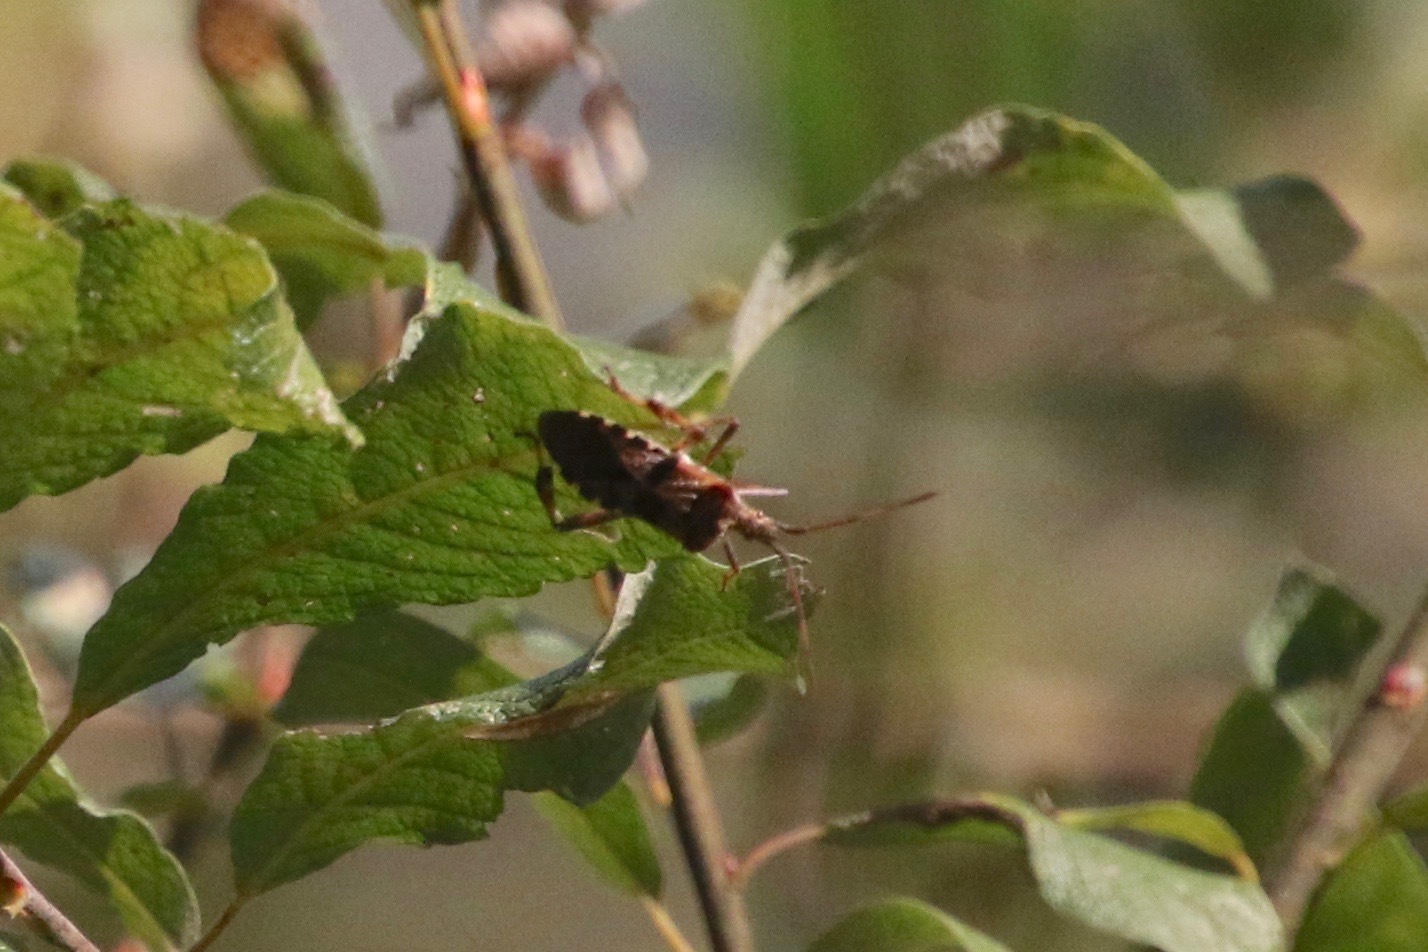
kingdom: Animalia
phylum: Arthropoda
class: Insecta
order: Hemiptera
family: Coreidae
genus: Leptoglossus
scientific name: Leptoglossus occidentalis
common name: Western conifer-seed bug
